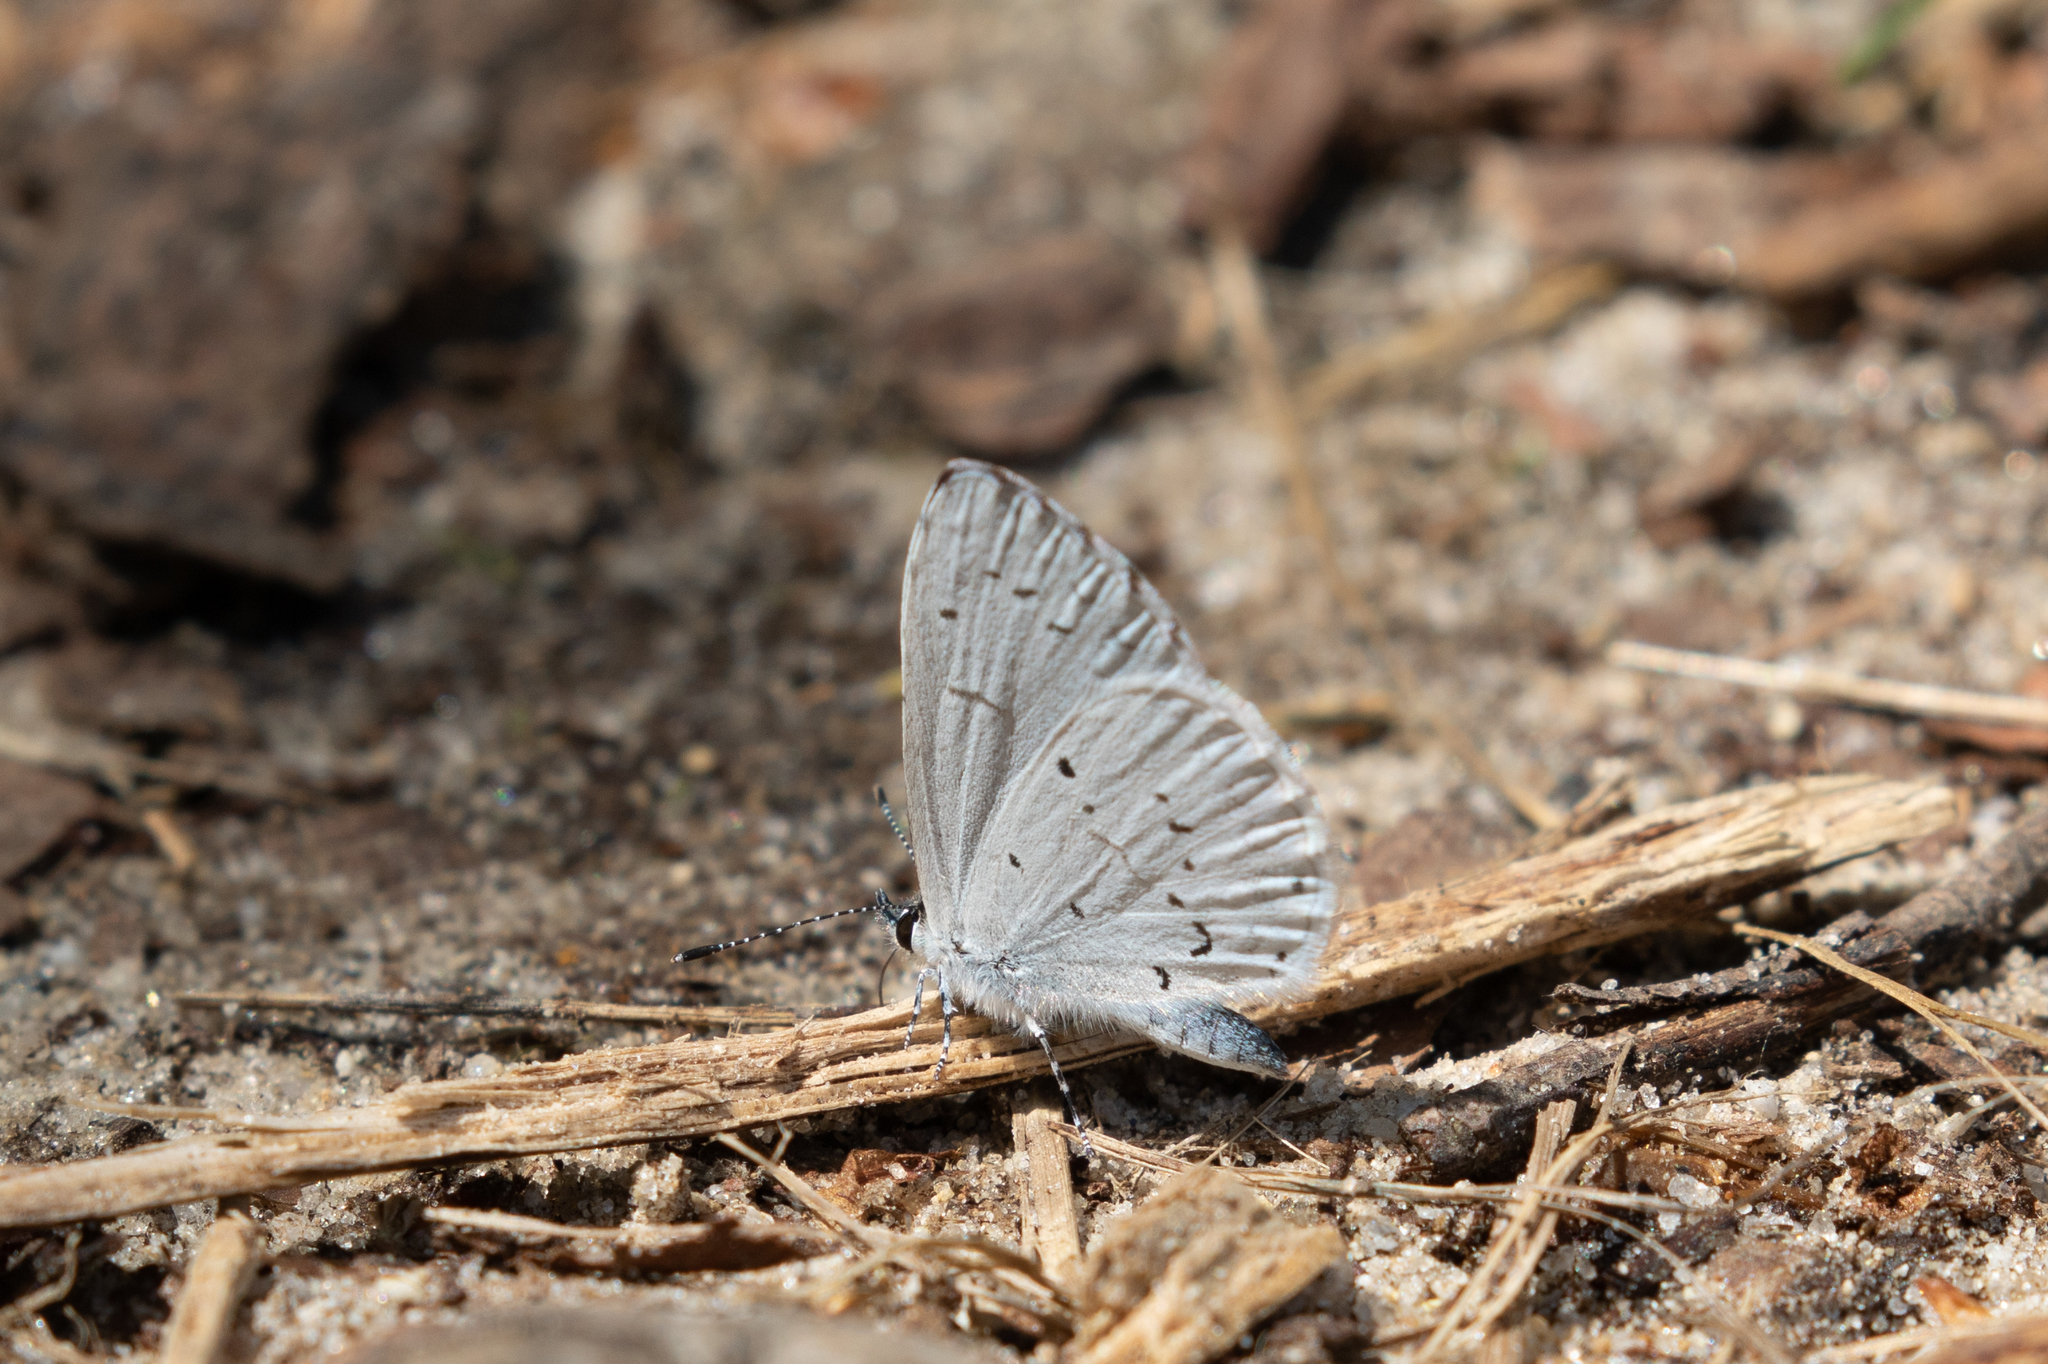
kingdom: Animalia
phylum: Arthropoda
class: Insecta
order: Lepidoptera
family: Lycaenidae
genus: Celastrina
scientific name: Celastrina
